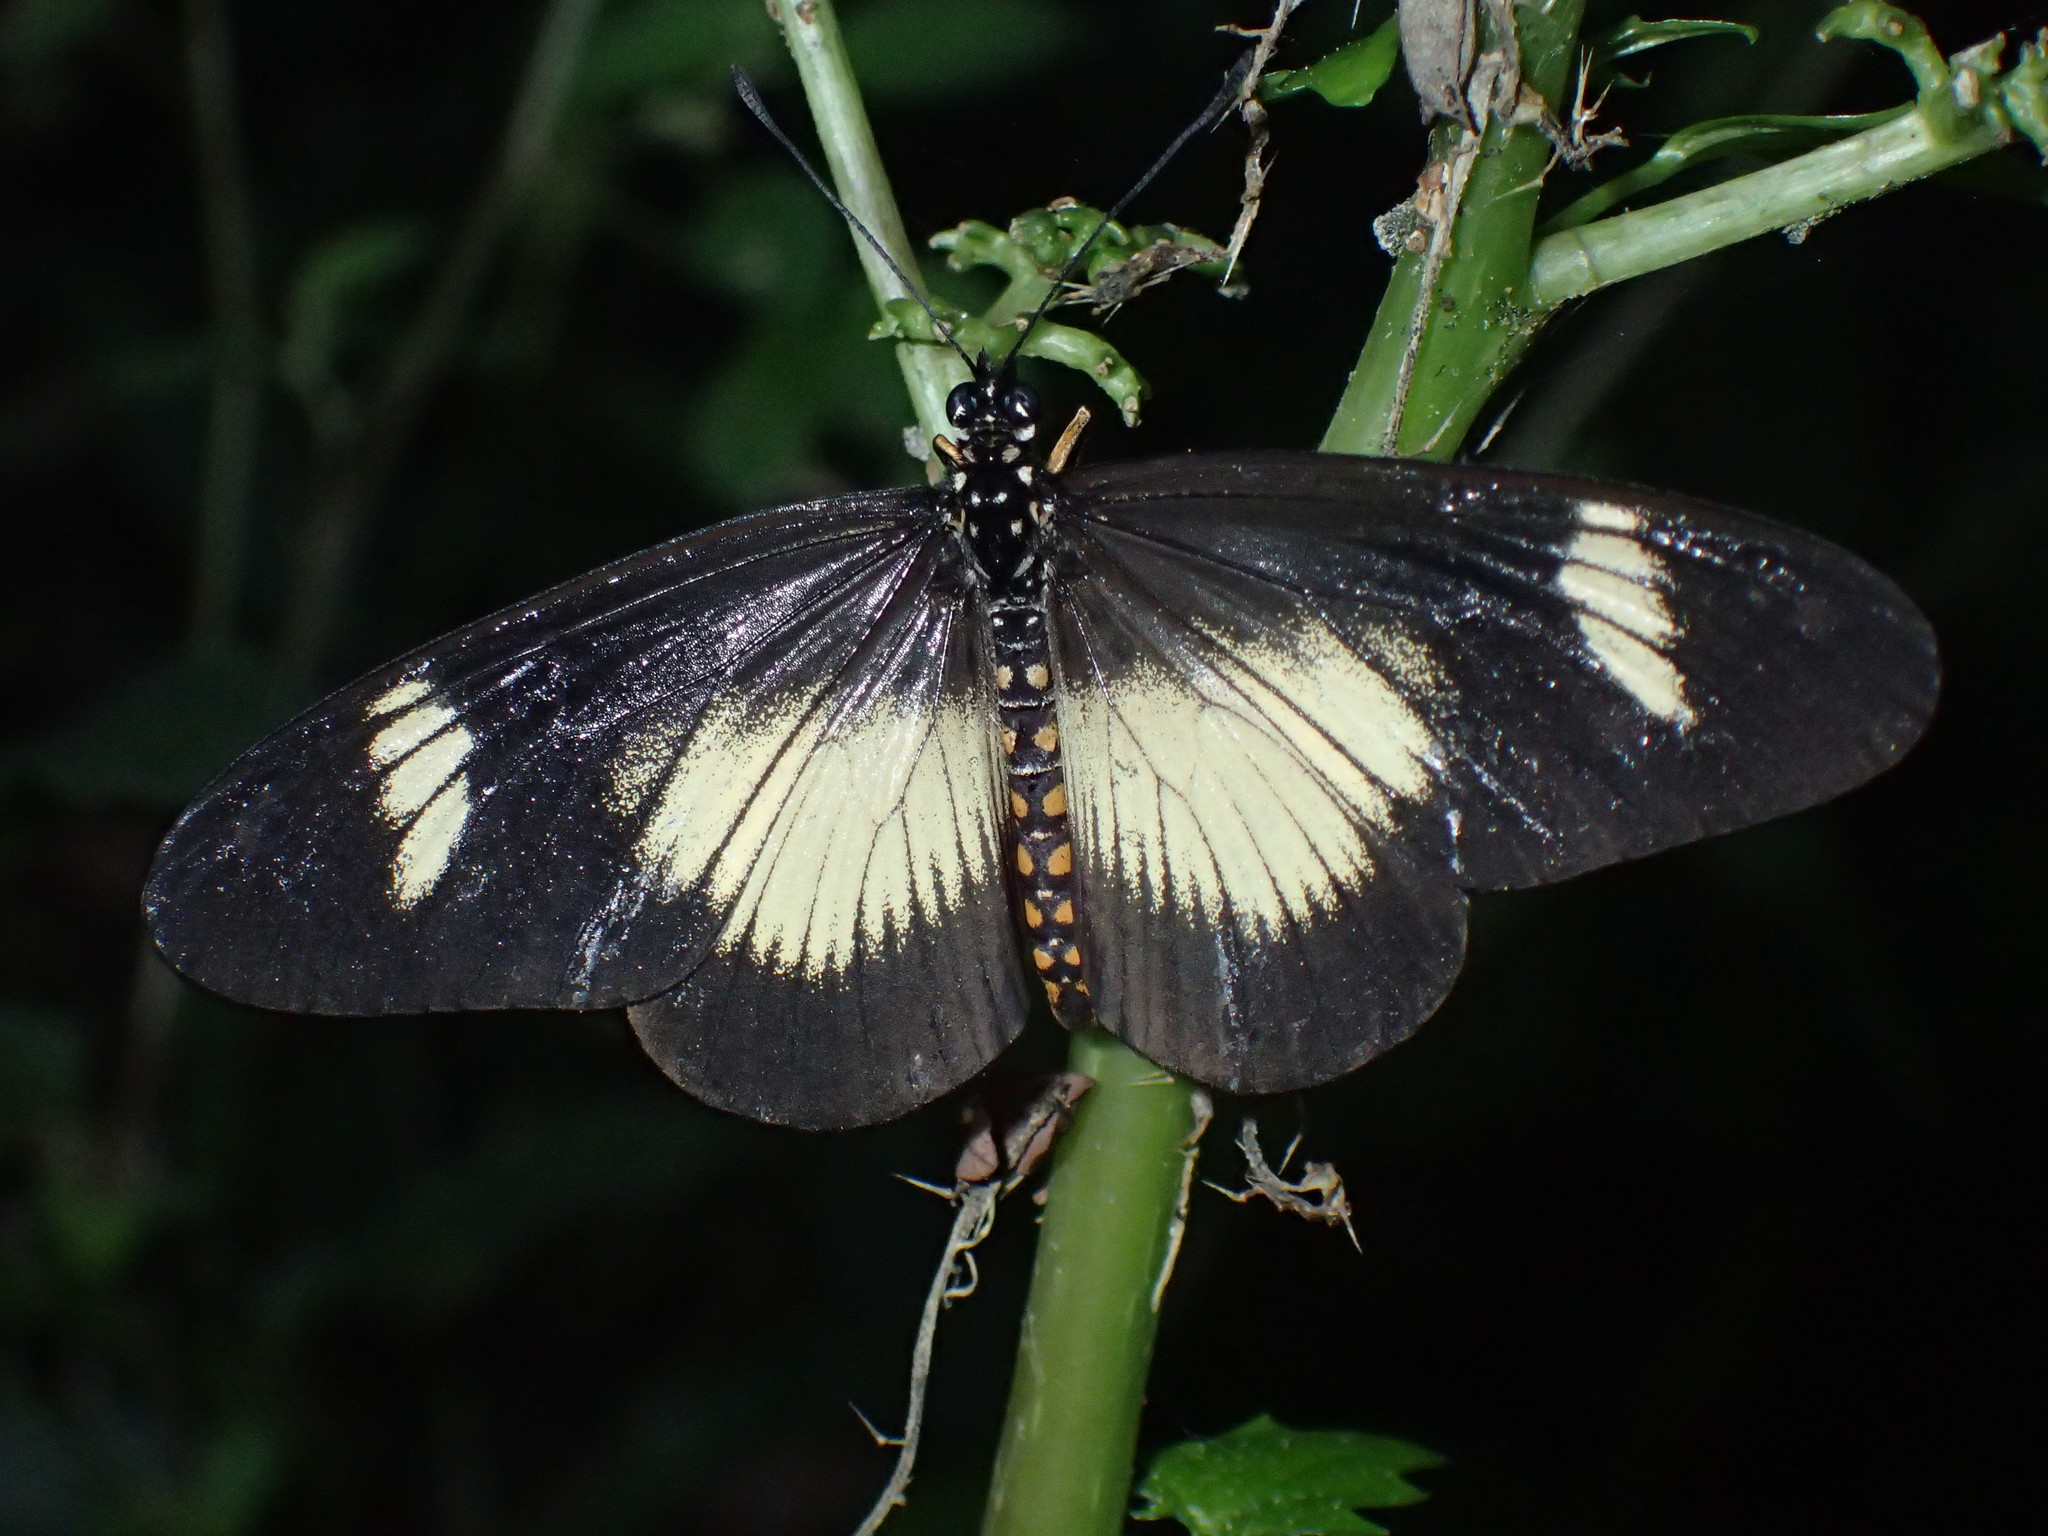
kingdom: Animalia
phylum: Arthropoda
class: Insecta
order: Lepidoptera
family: Nymphalidae
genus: Acraea
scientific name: Acraea esebria
